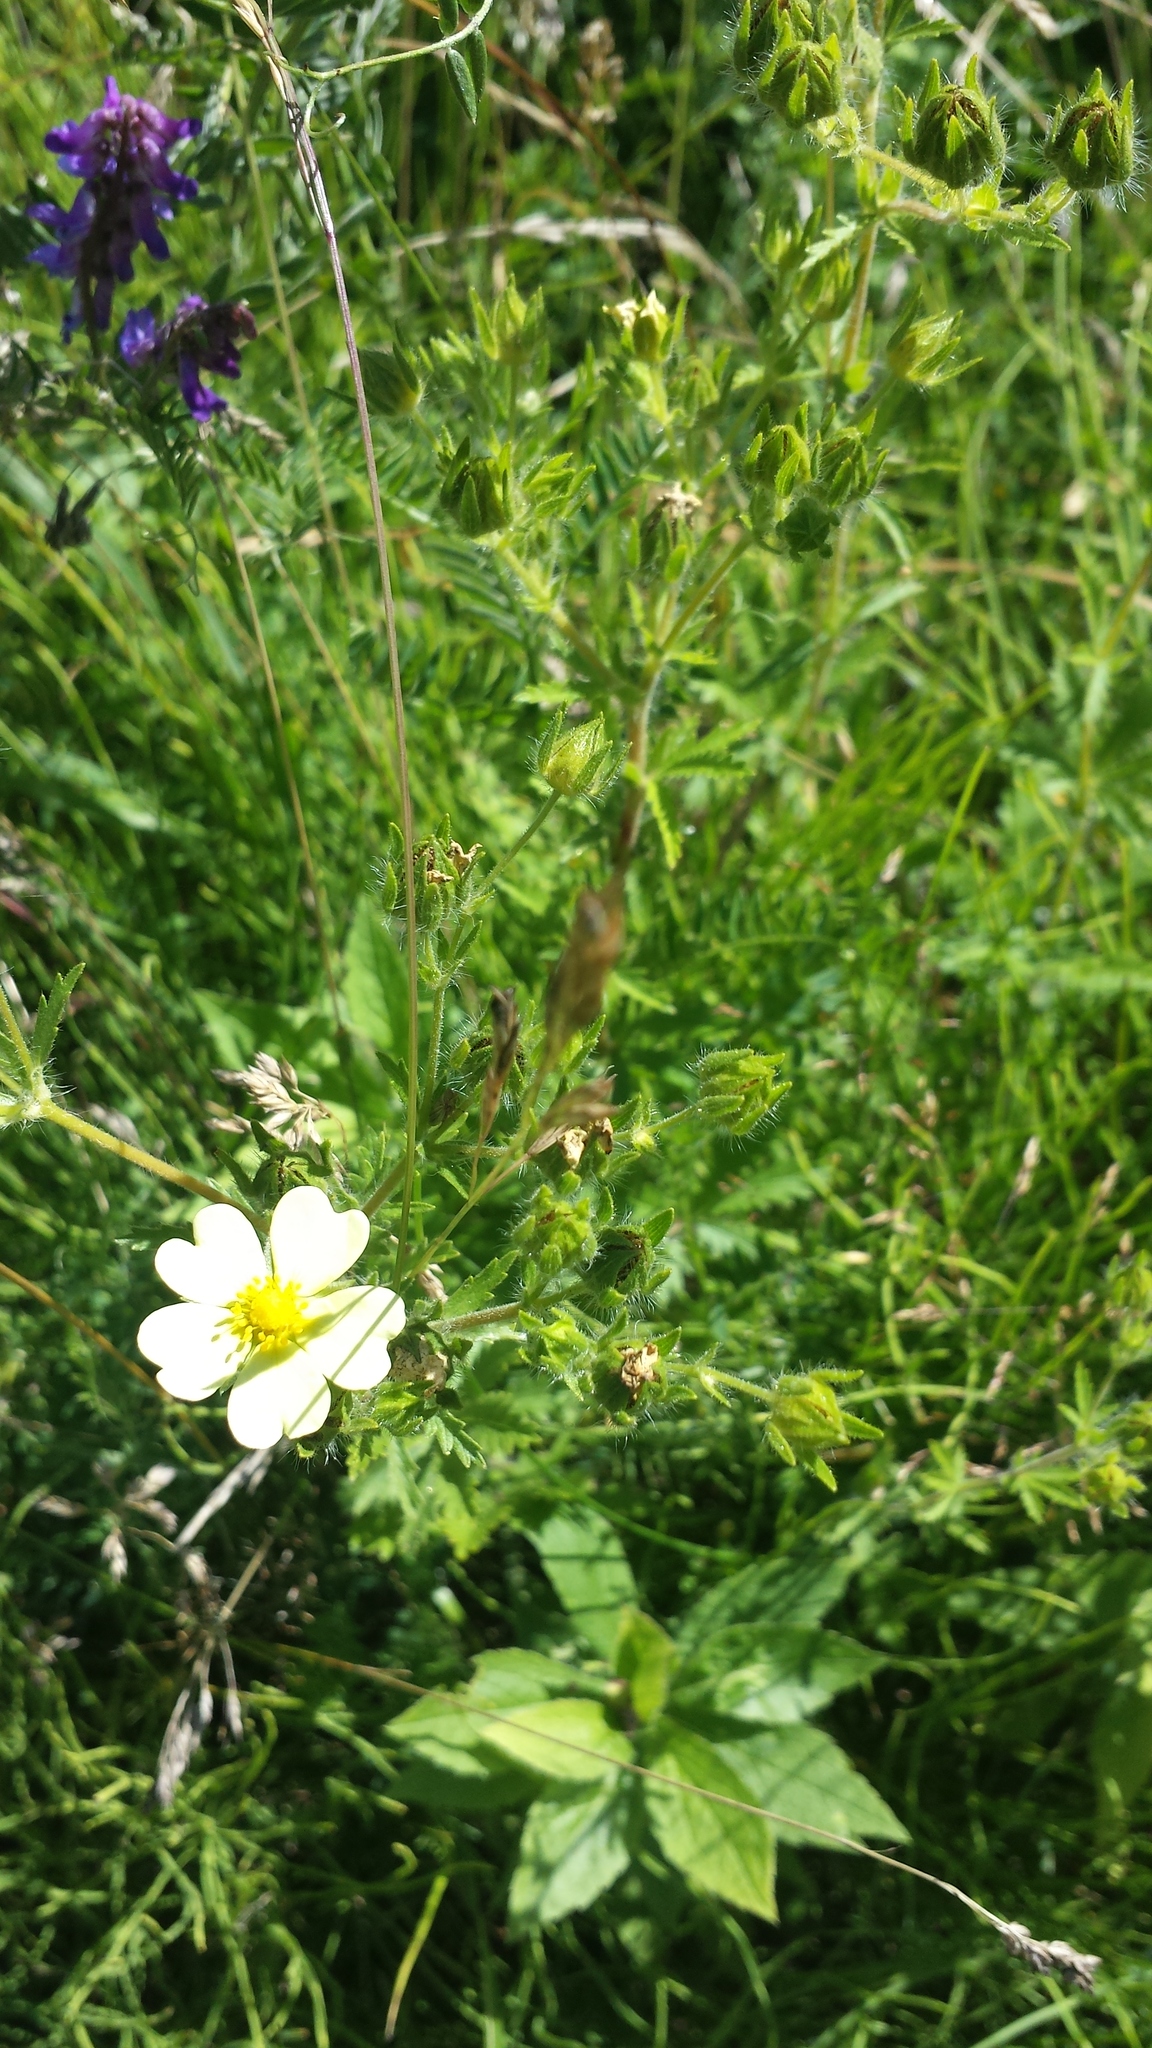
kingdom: Plantae
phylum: Tracheophyta
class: Magnoliopsida
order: Rosales
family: Rosaceae
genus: Potentilla
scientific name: Potentilla recta
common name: Sulphur cinquefoil
